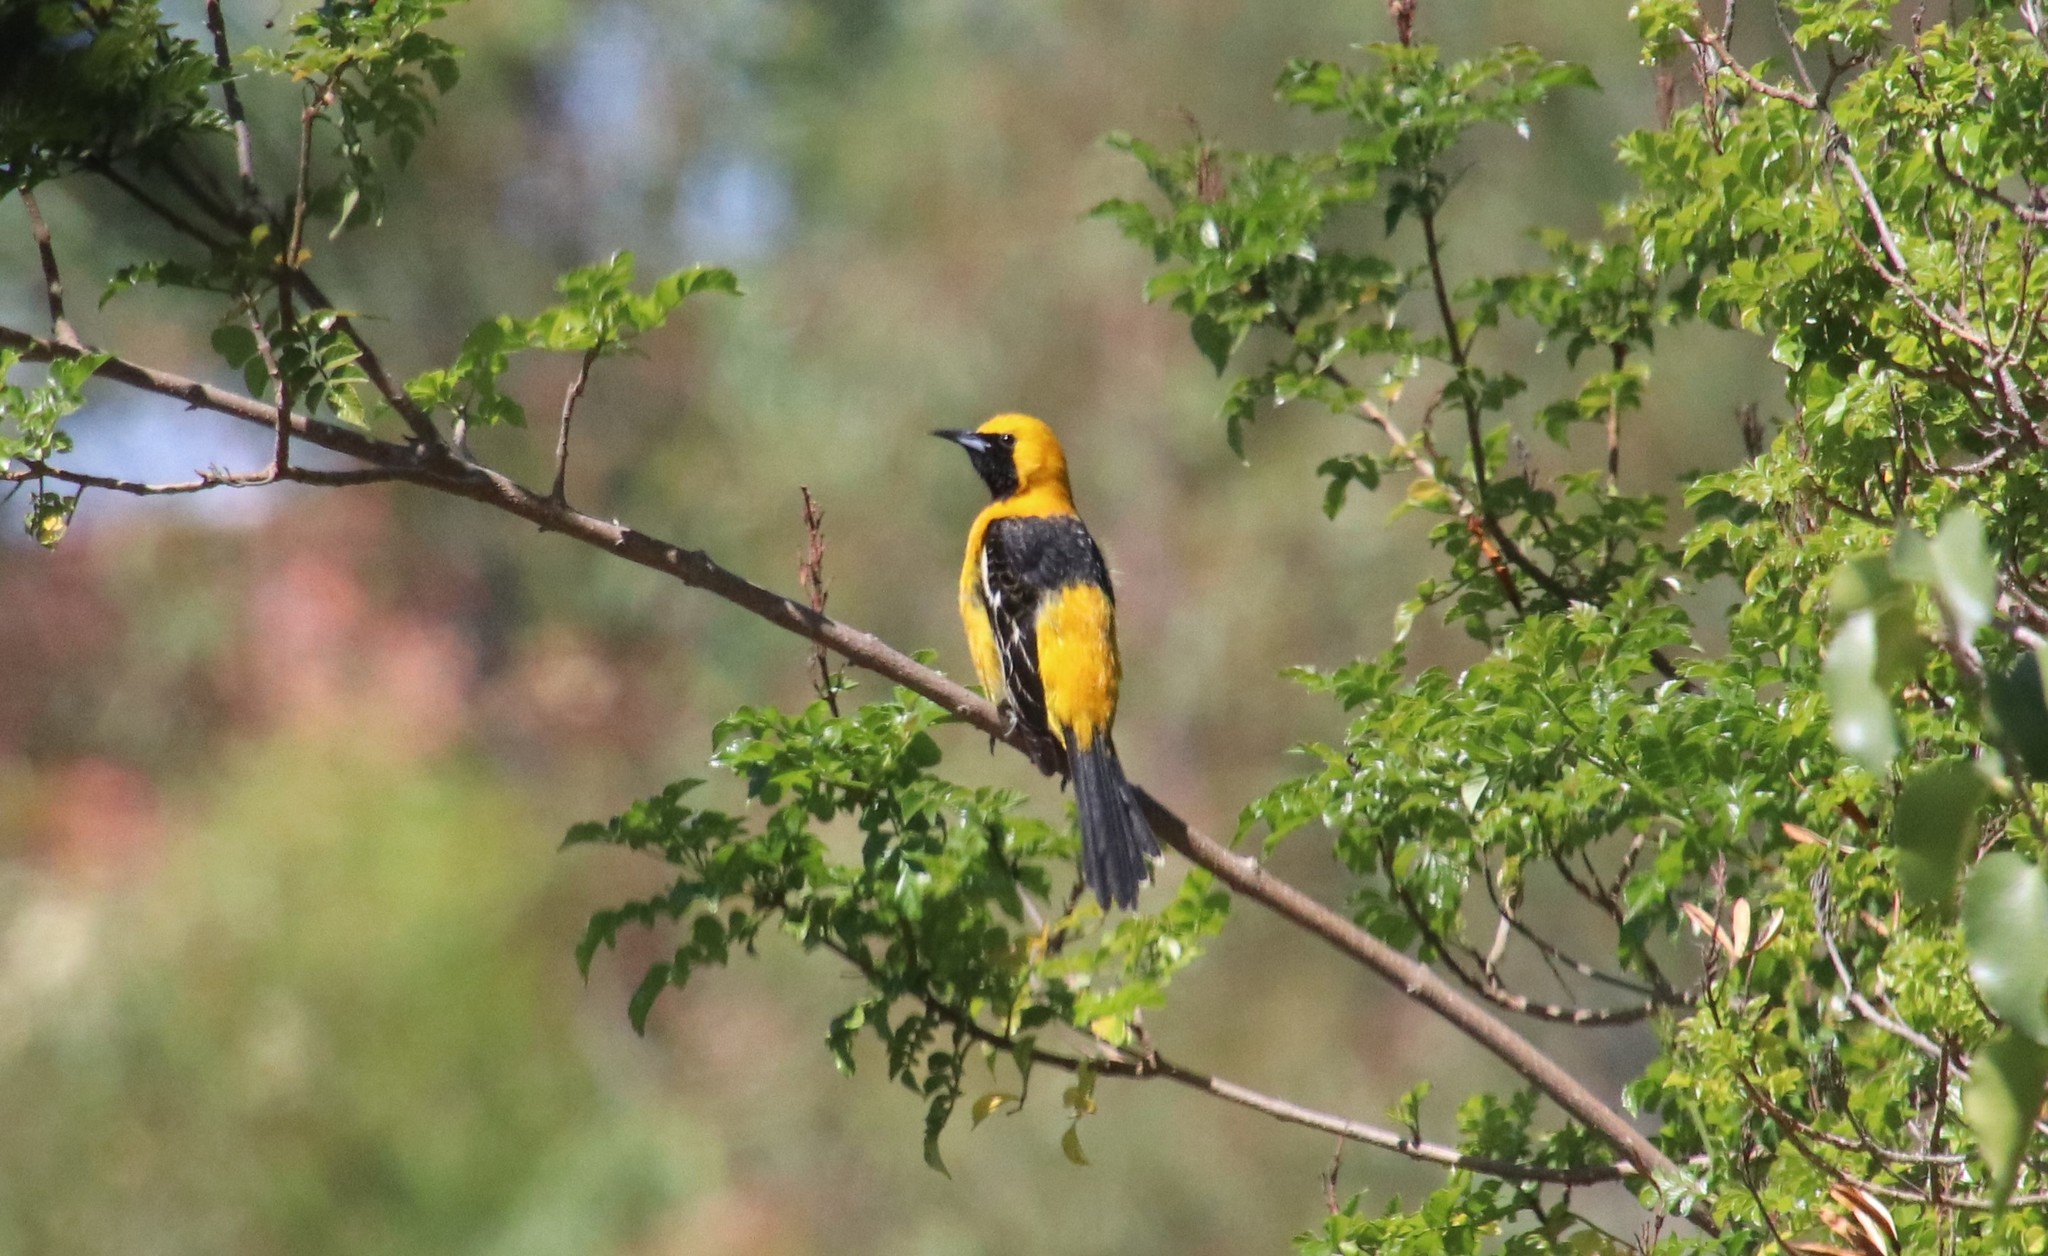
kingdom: Animalia
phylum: Chordata
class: Aves
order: Passeriformes
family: Icteridae
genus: Icterus
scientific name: Icterus cucullatus
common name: Hooded oriole
